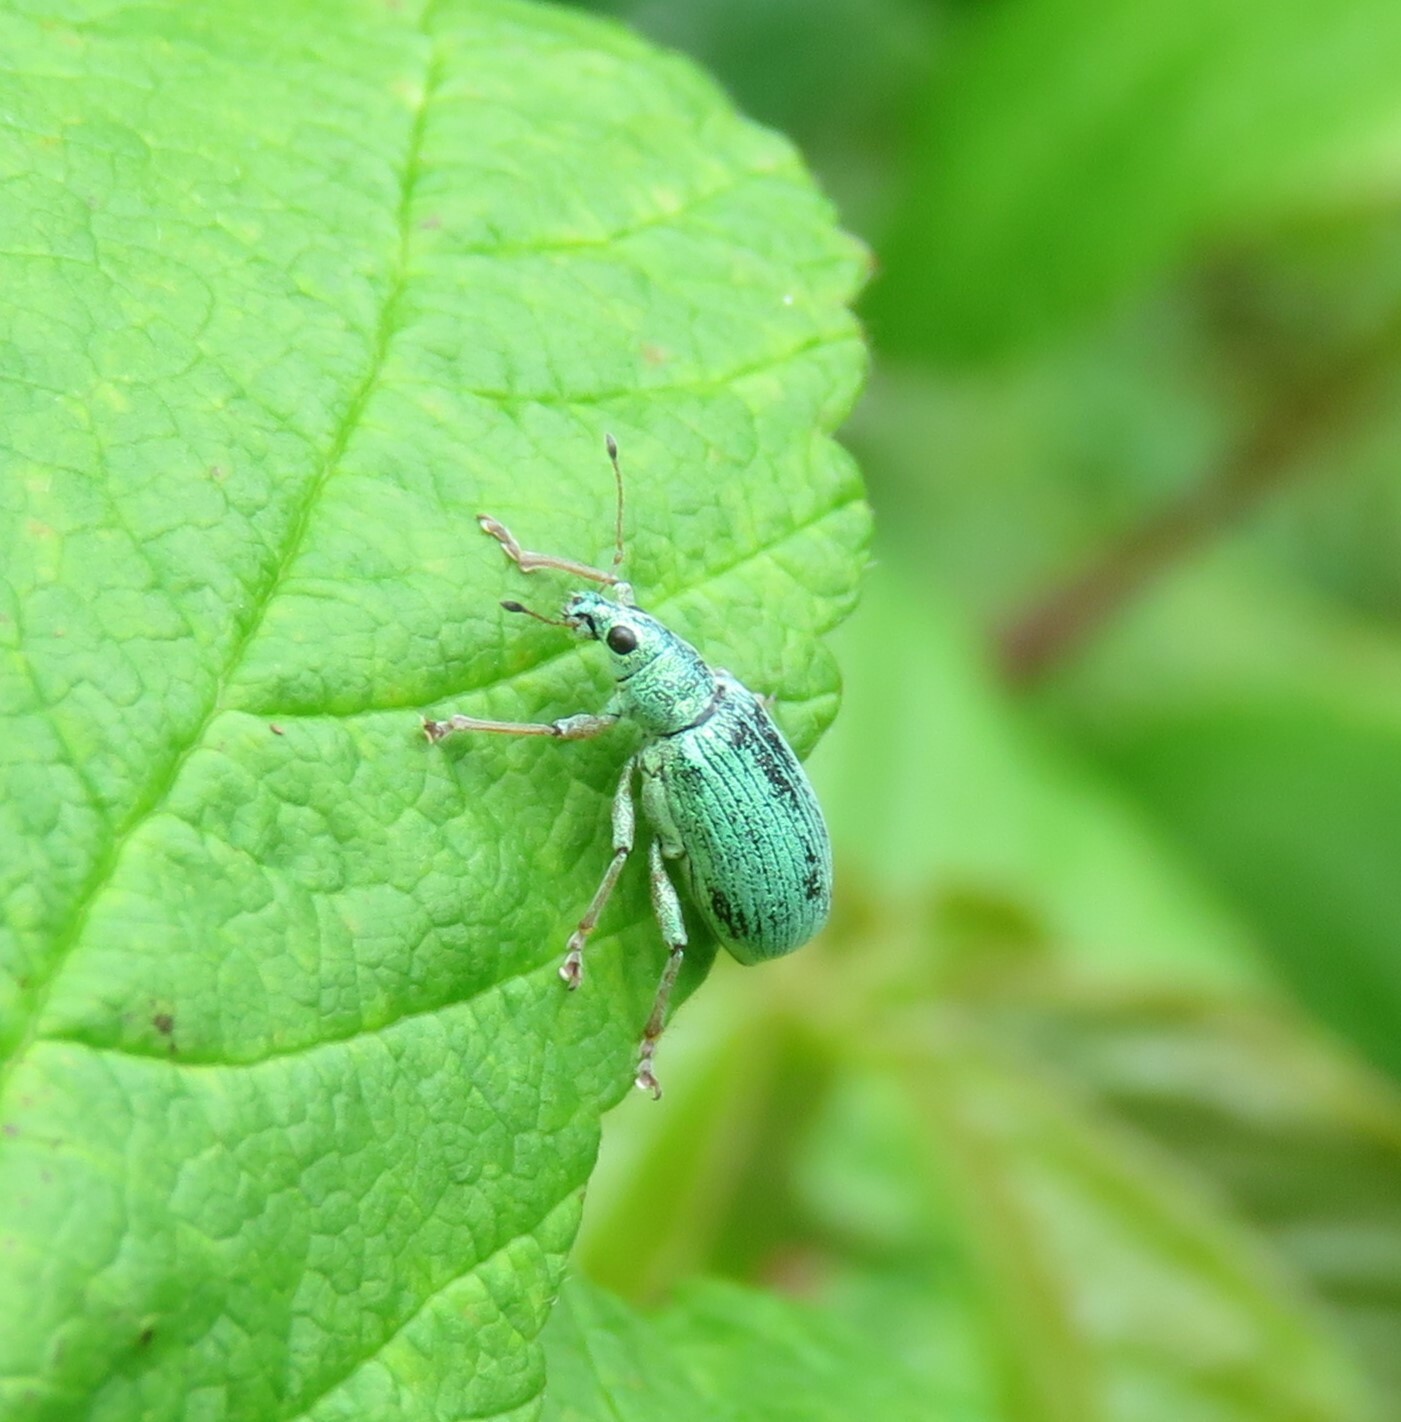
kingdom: Animalia
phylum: Arthropoda
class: Insecta
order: Coleoptera
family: Curculionidae
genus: Polydrusus
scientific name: Polydrusus formosus
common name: Weevil
